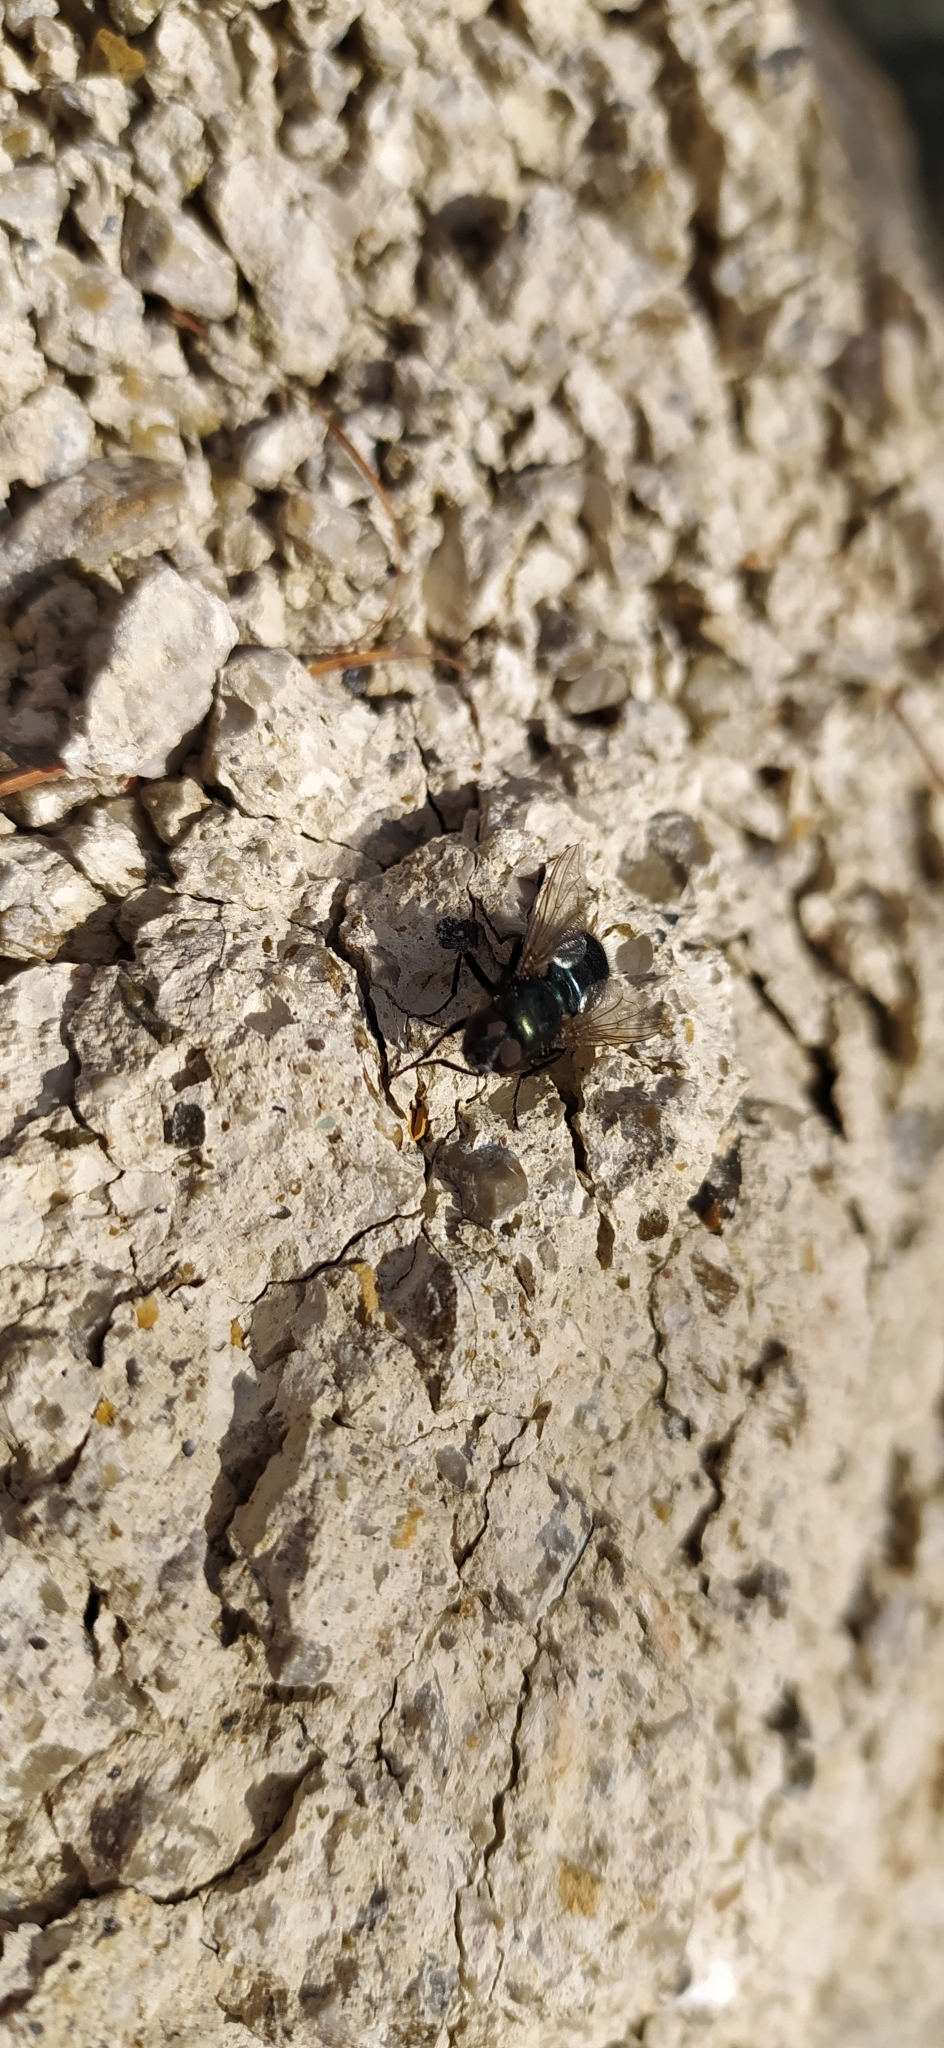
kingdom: Animalia
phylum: Arthropoda
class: Insecta
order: Diptera
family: Calliphoridae
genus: Protophormia
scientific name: Protophormia terraenovae
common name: Blackbottle
